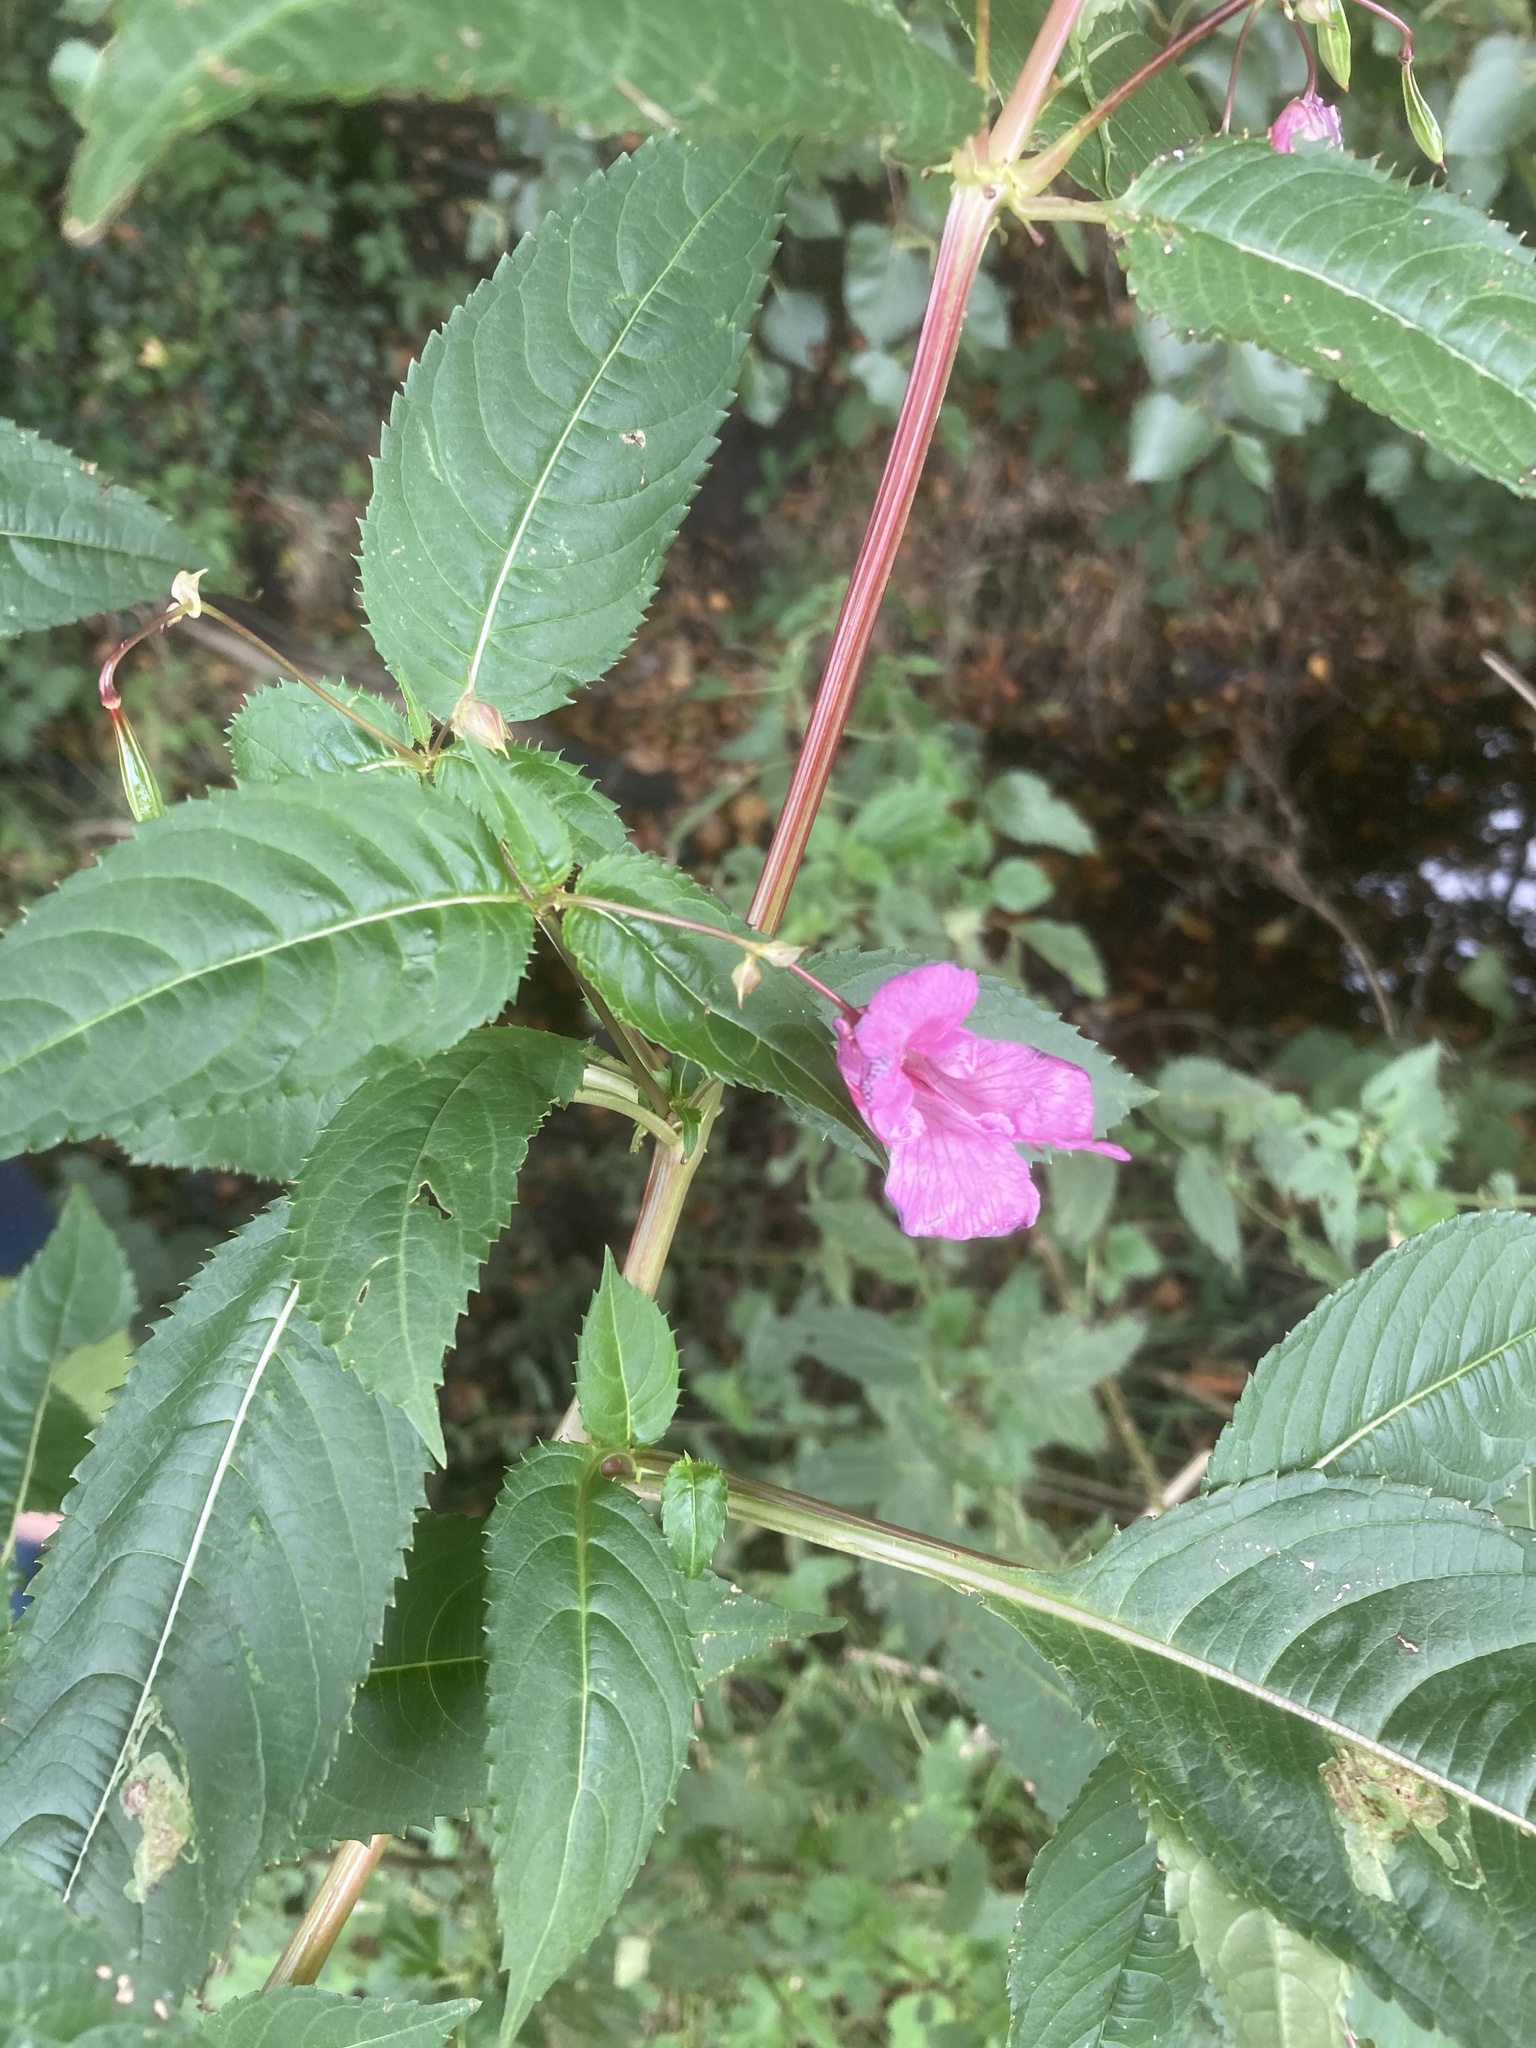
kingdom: Plantae
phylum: Tracheophyta
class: Magnoliopsida
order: Ericales
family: Balsaminaceae
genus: Impatiens
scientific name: Impatiens glandulifera
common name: Himalayan balsam
